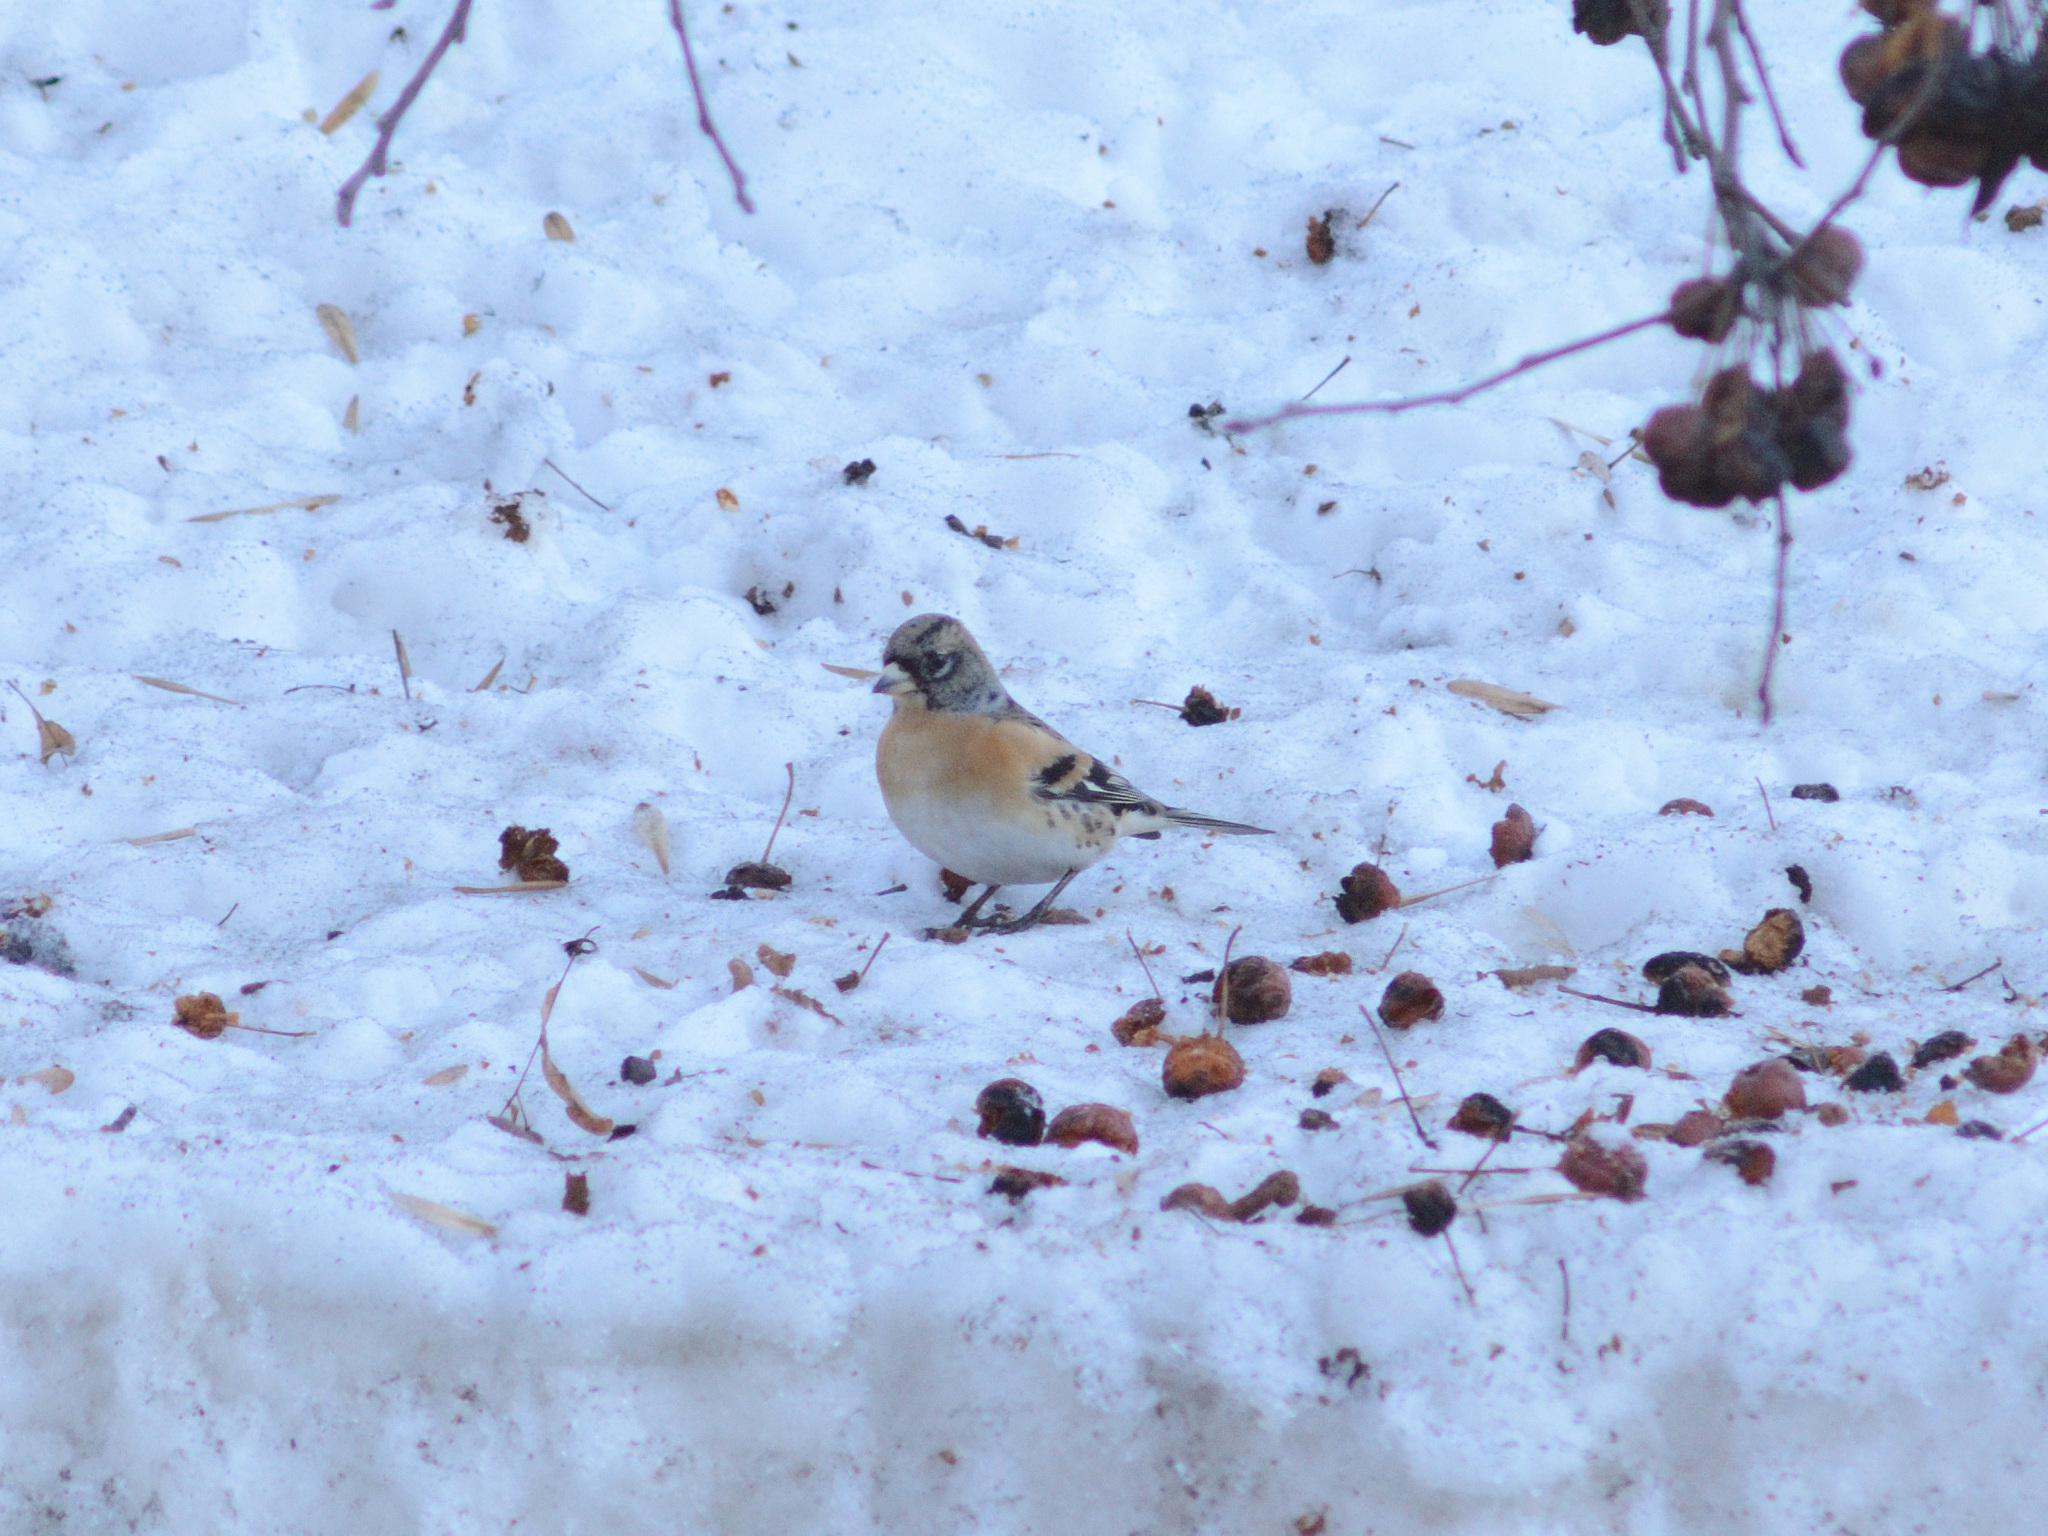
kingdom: Animalia
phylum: Chordata
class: Aves
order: Passeriformes
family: Fringillidae
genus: Fringilla
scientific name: Fringilla montifringilla
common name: Brambling
